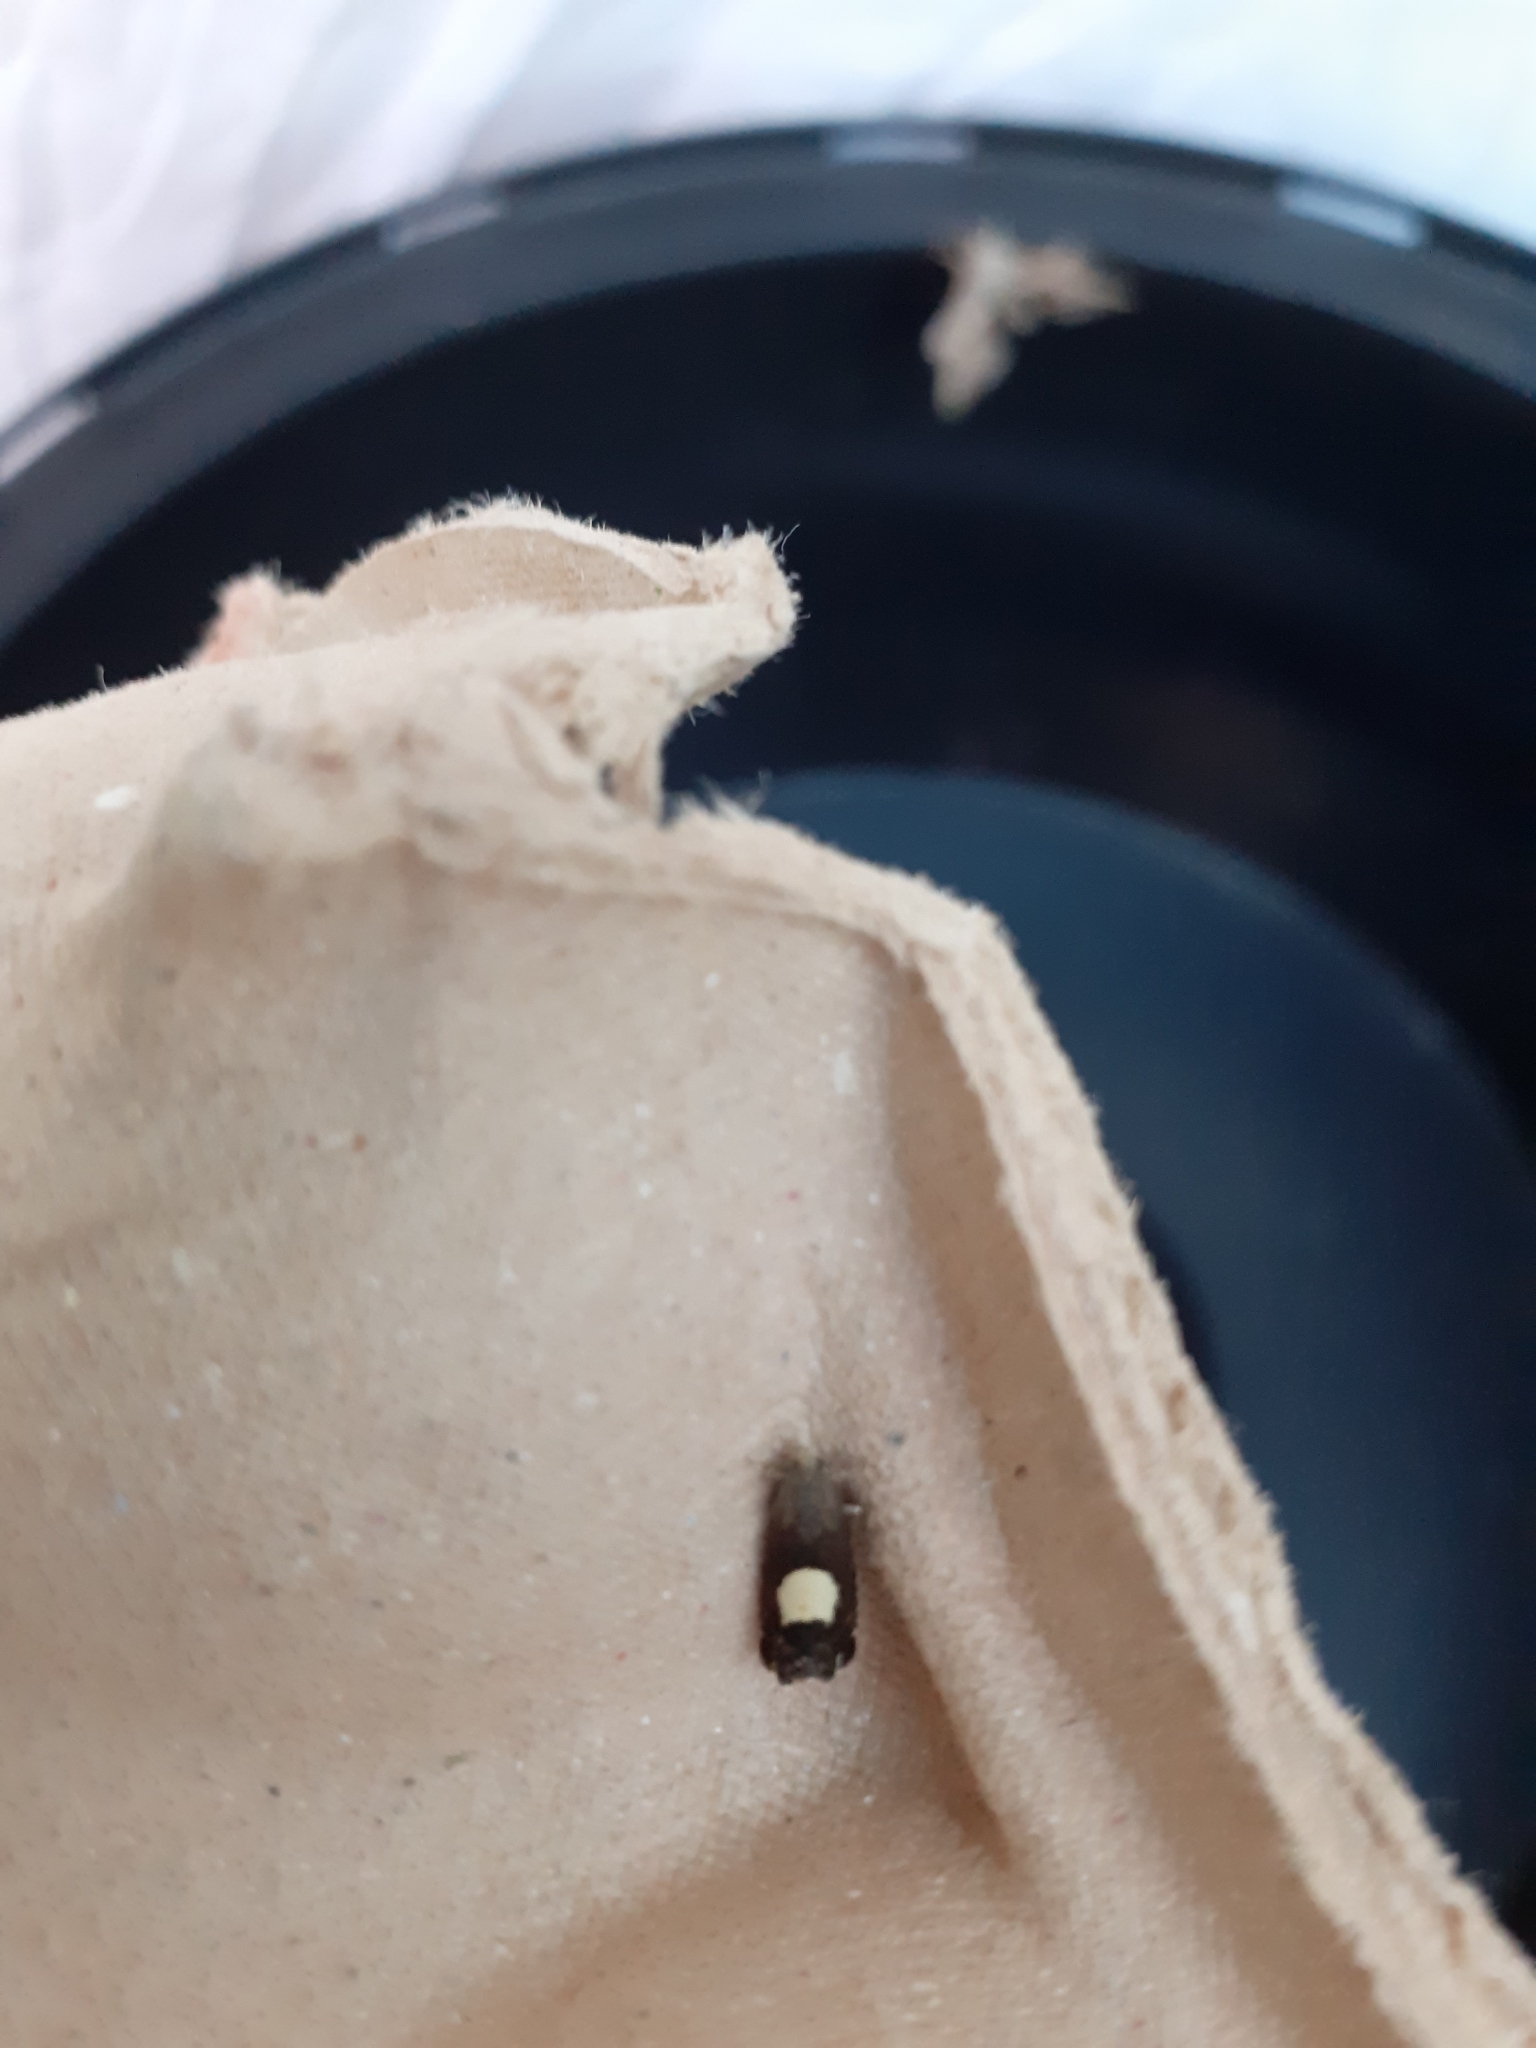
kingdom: Animalia
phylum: Arthropoda
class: Insecta
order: Lepidoptera
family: Tortricidae
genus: Pammene
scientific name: Pammene regiana
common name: Regal piercer
